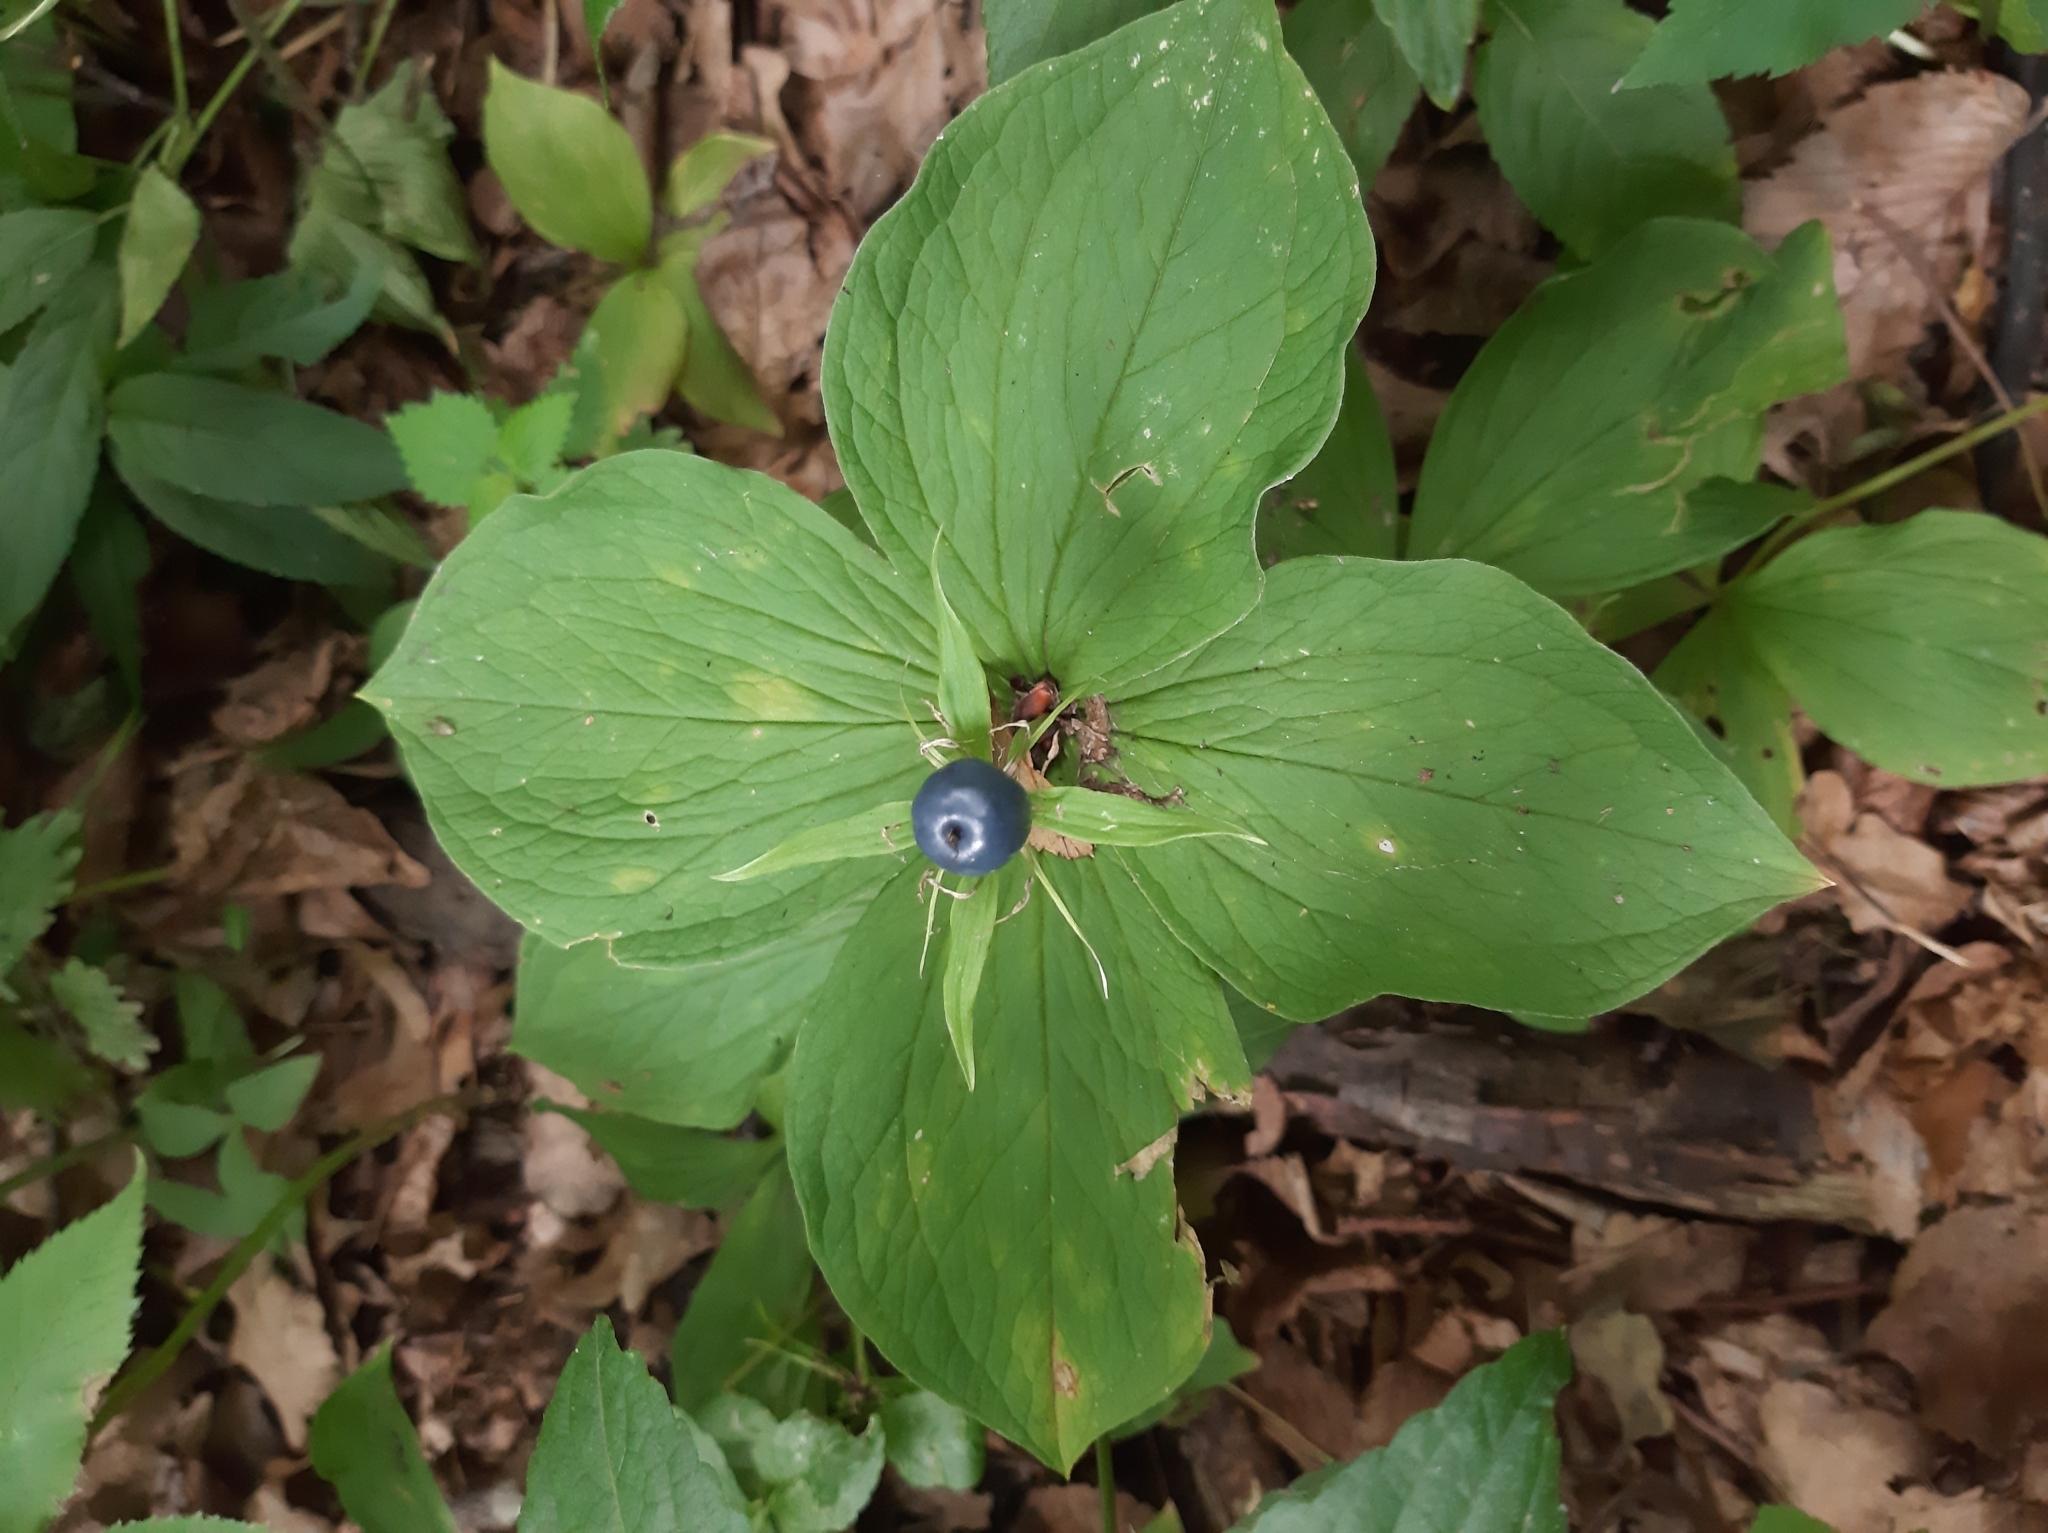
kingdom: Plantae
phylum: Tracheophyta
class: Liliopsida
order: Liliales
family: Melanthiaceae
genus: Paris
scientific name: Paris quadrifolia
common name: Herb-paris
